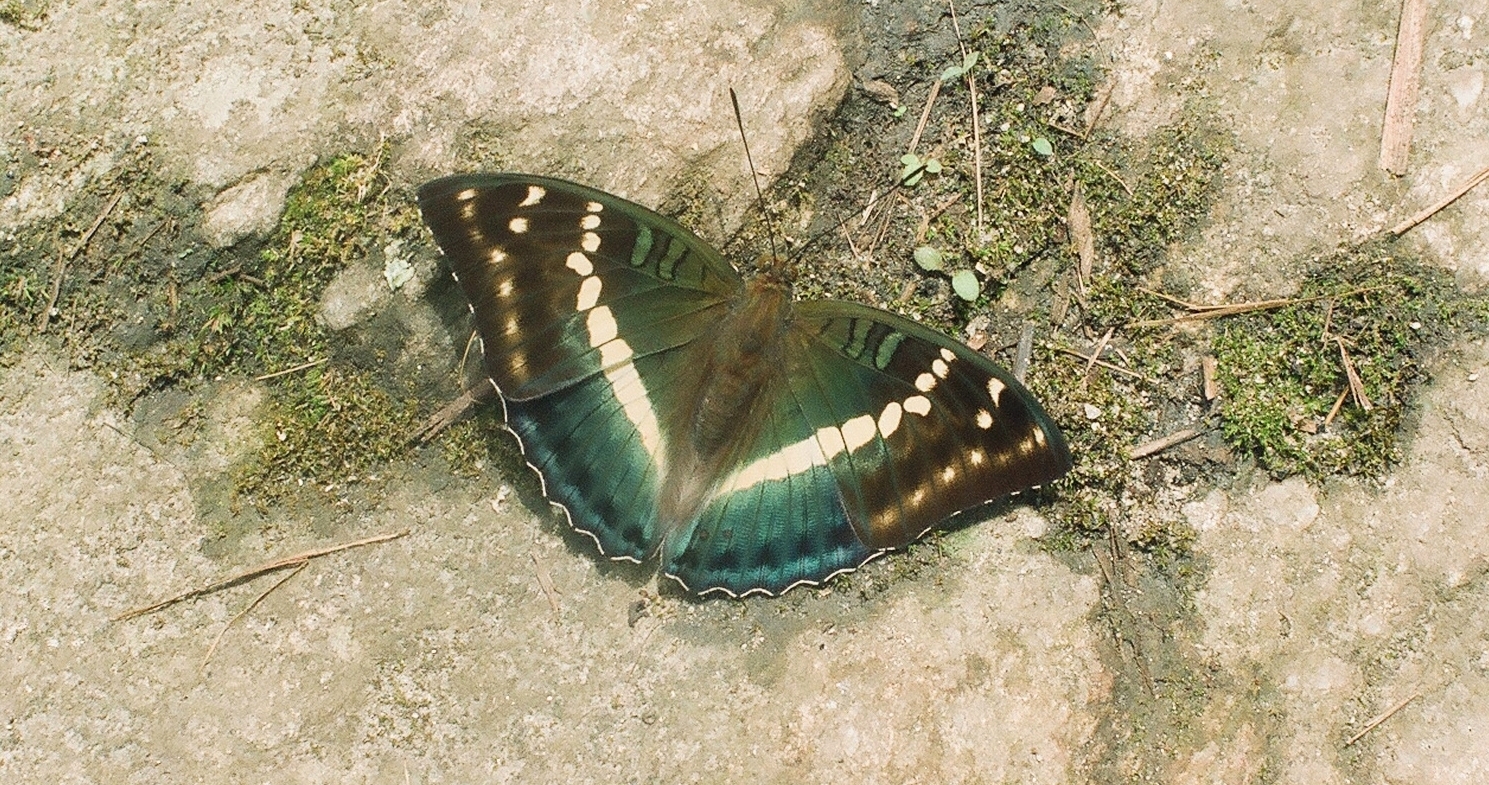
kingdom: Animalia
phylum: Arthropoda
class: Insecta
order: Lepidoptera
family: Nymphalidae
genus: Euthalia
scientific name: Euthalia franciae
